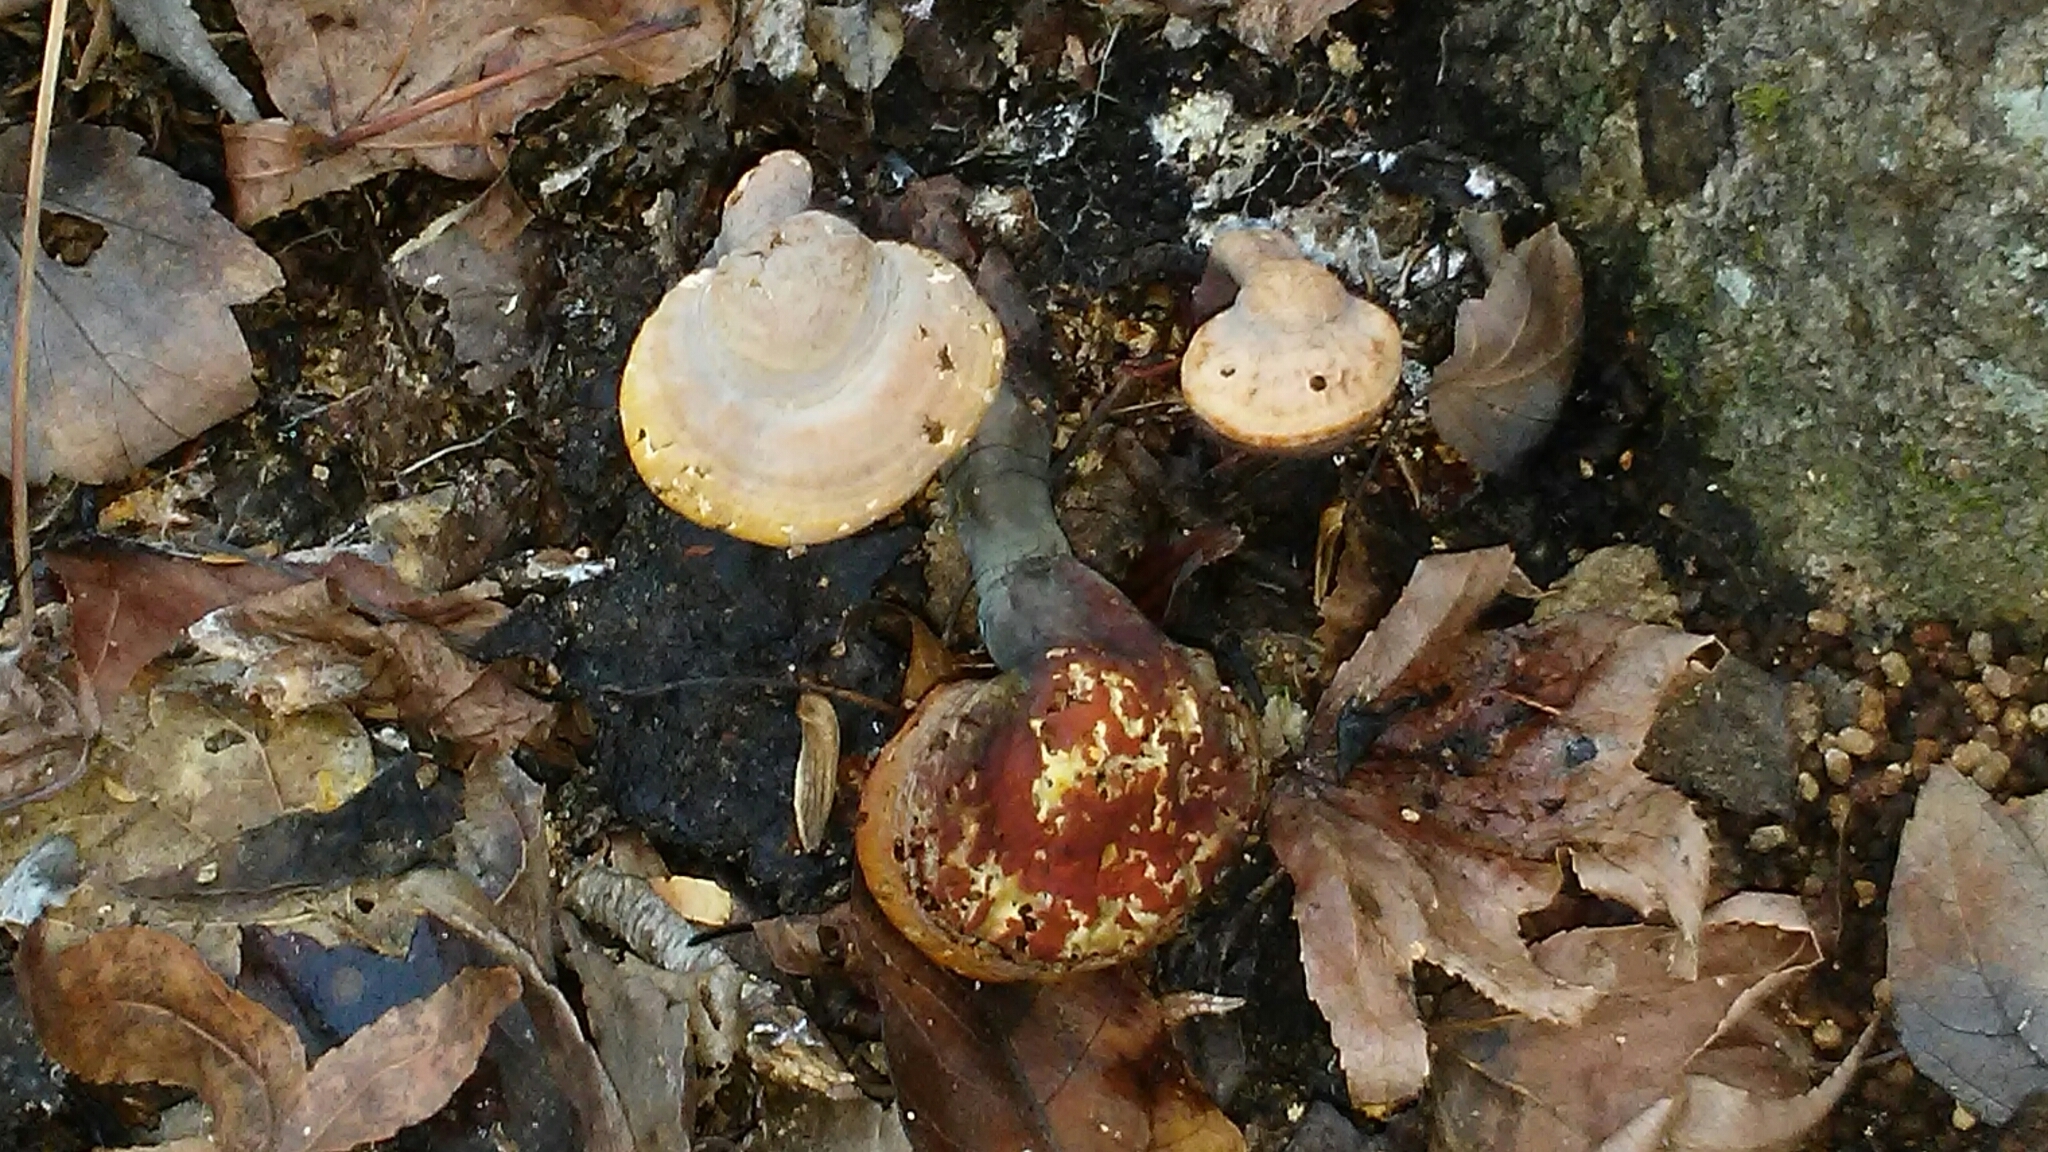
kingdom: Fungi
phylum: Basidiomycota
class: Agaricomycetes
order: Polyporales
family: Polyporaceae
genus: Ganoderma
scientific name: Ganoderma curtisii
